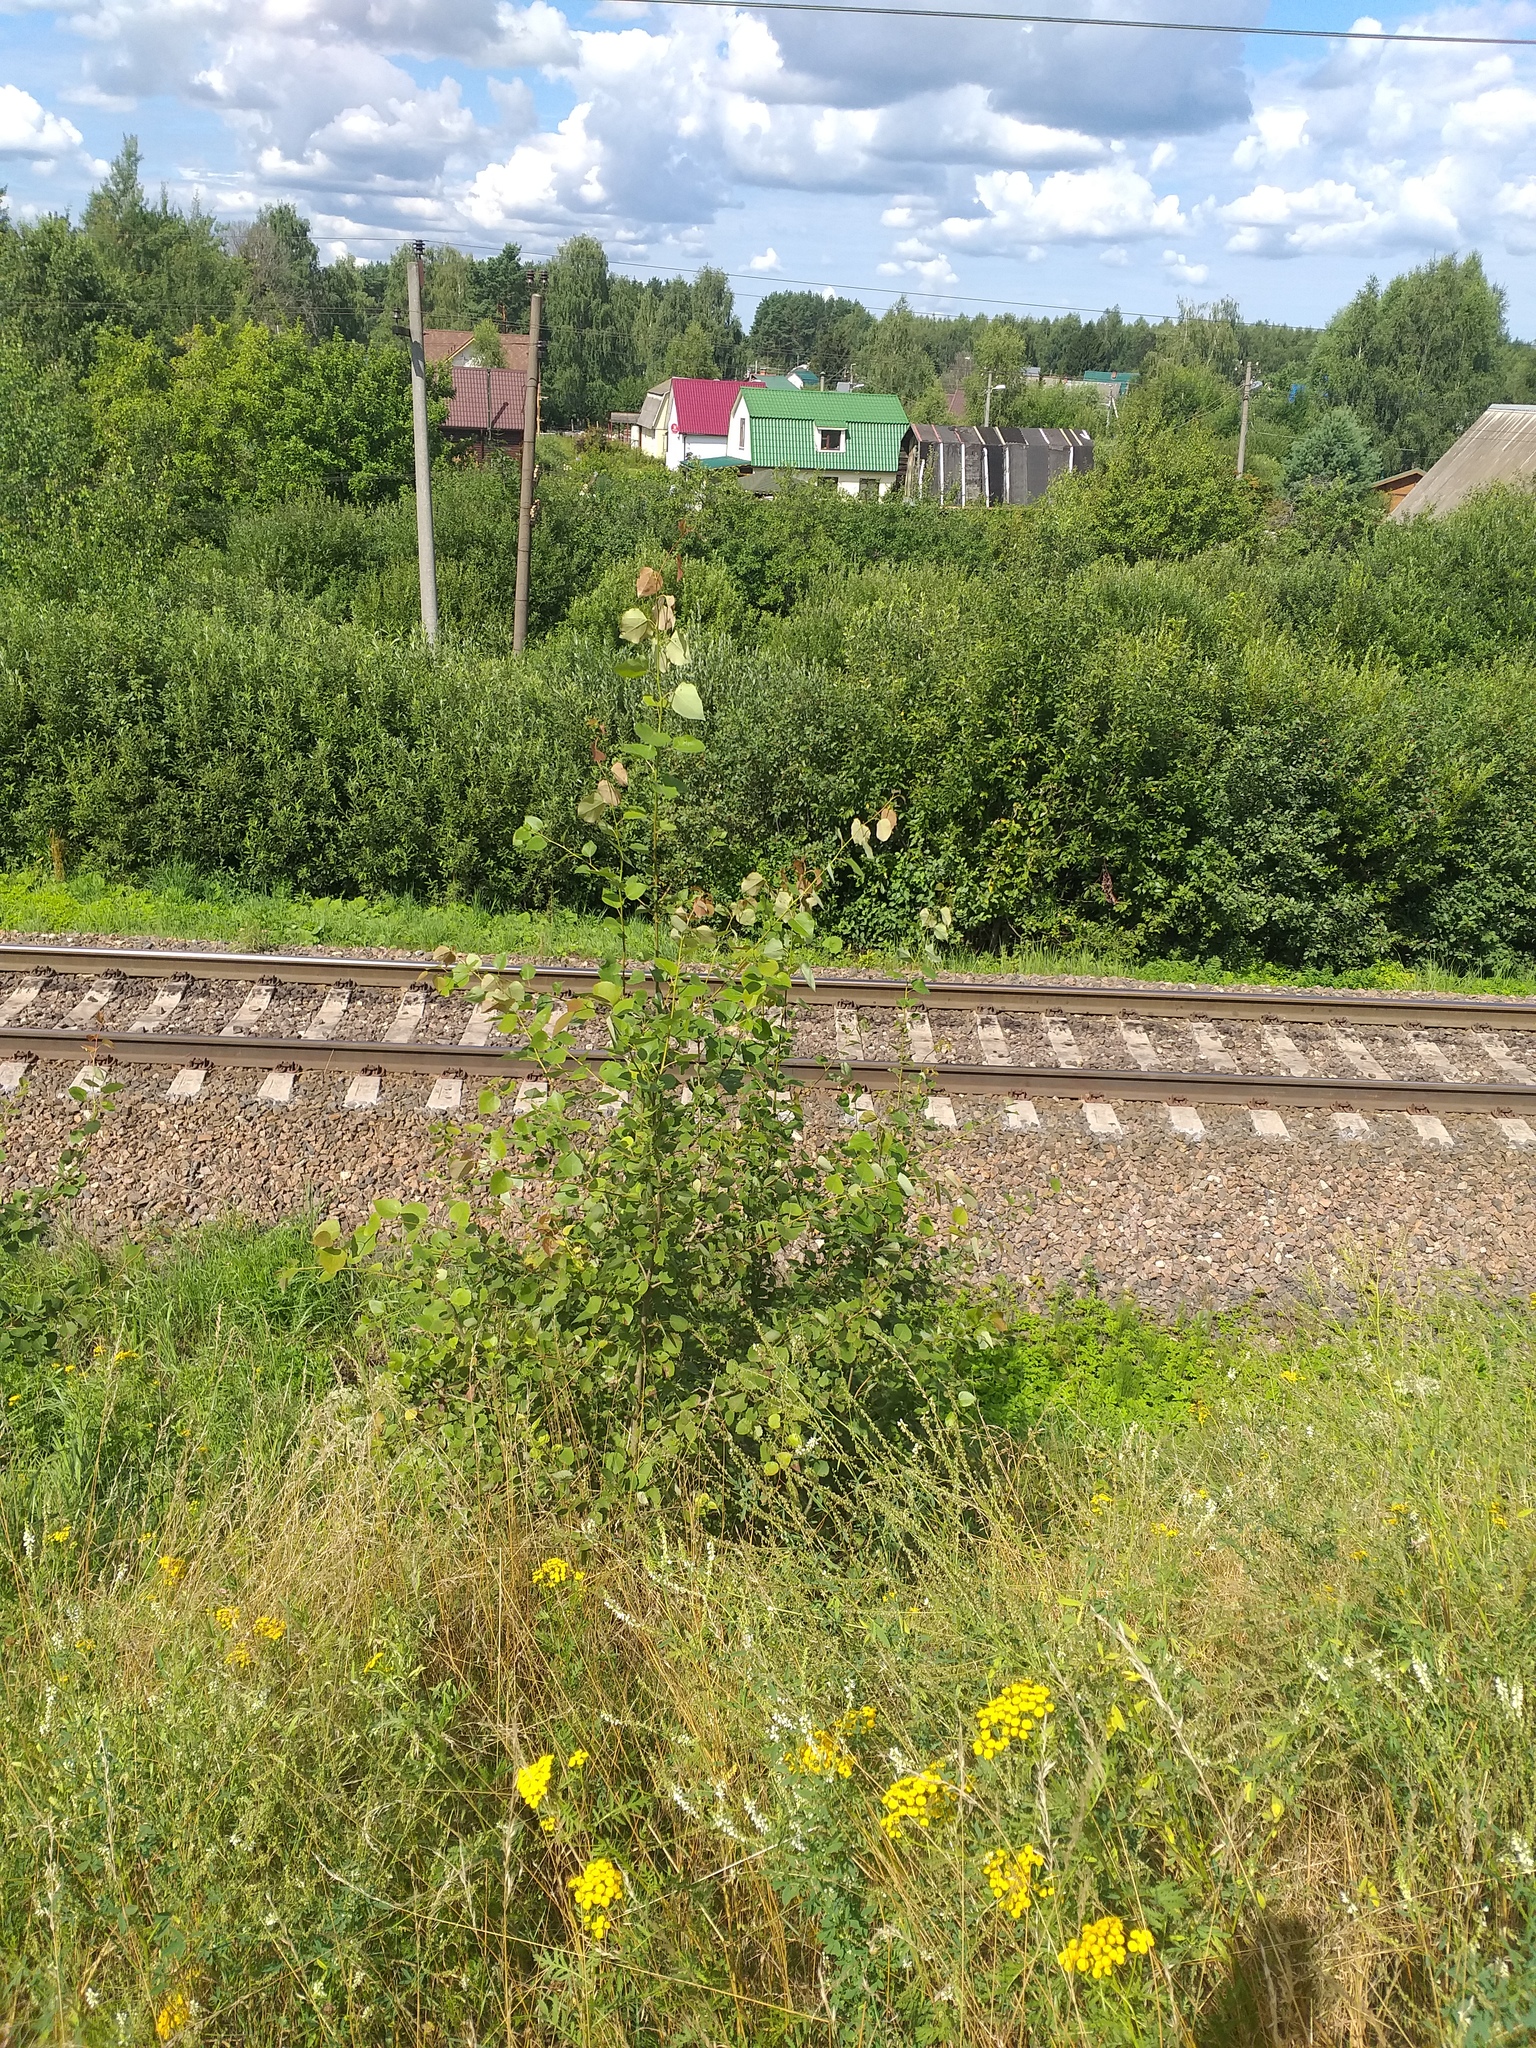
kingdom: Plantae
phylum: Tracheophyta
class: Magnoliopsida
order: Malpighiales
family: Salicaceae
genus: Populus
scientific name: Populus tremula
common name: European aspen
